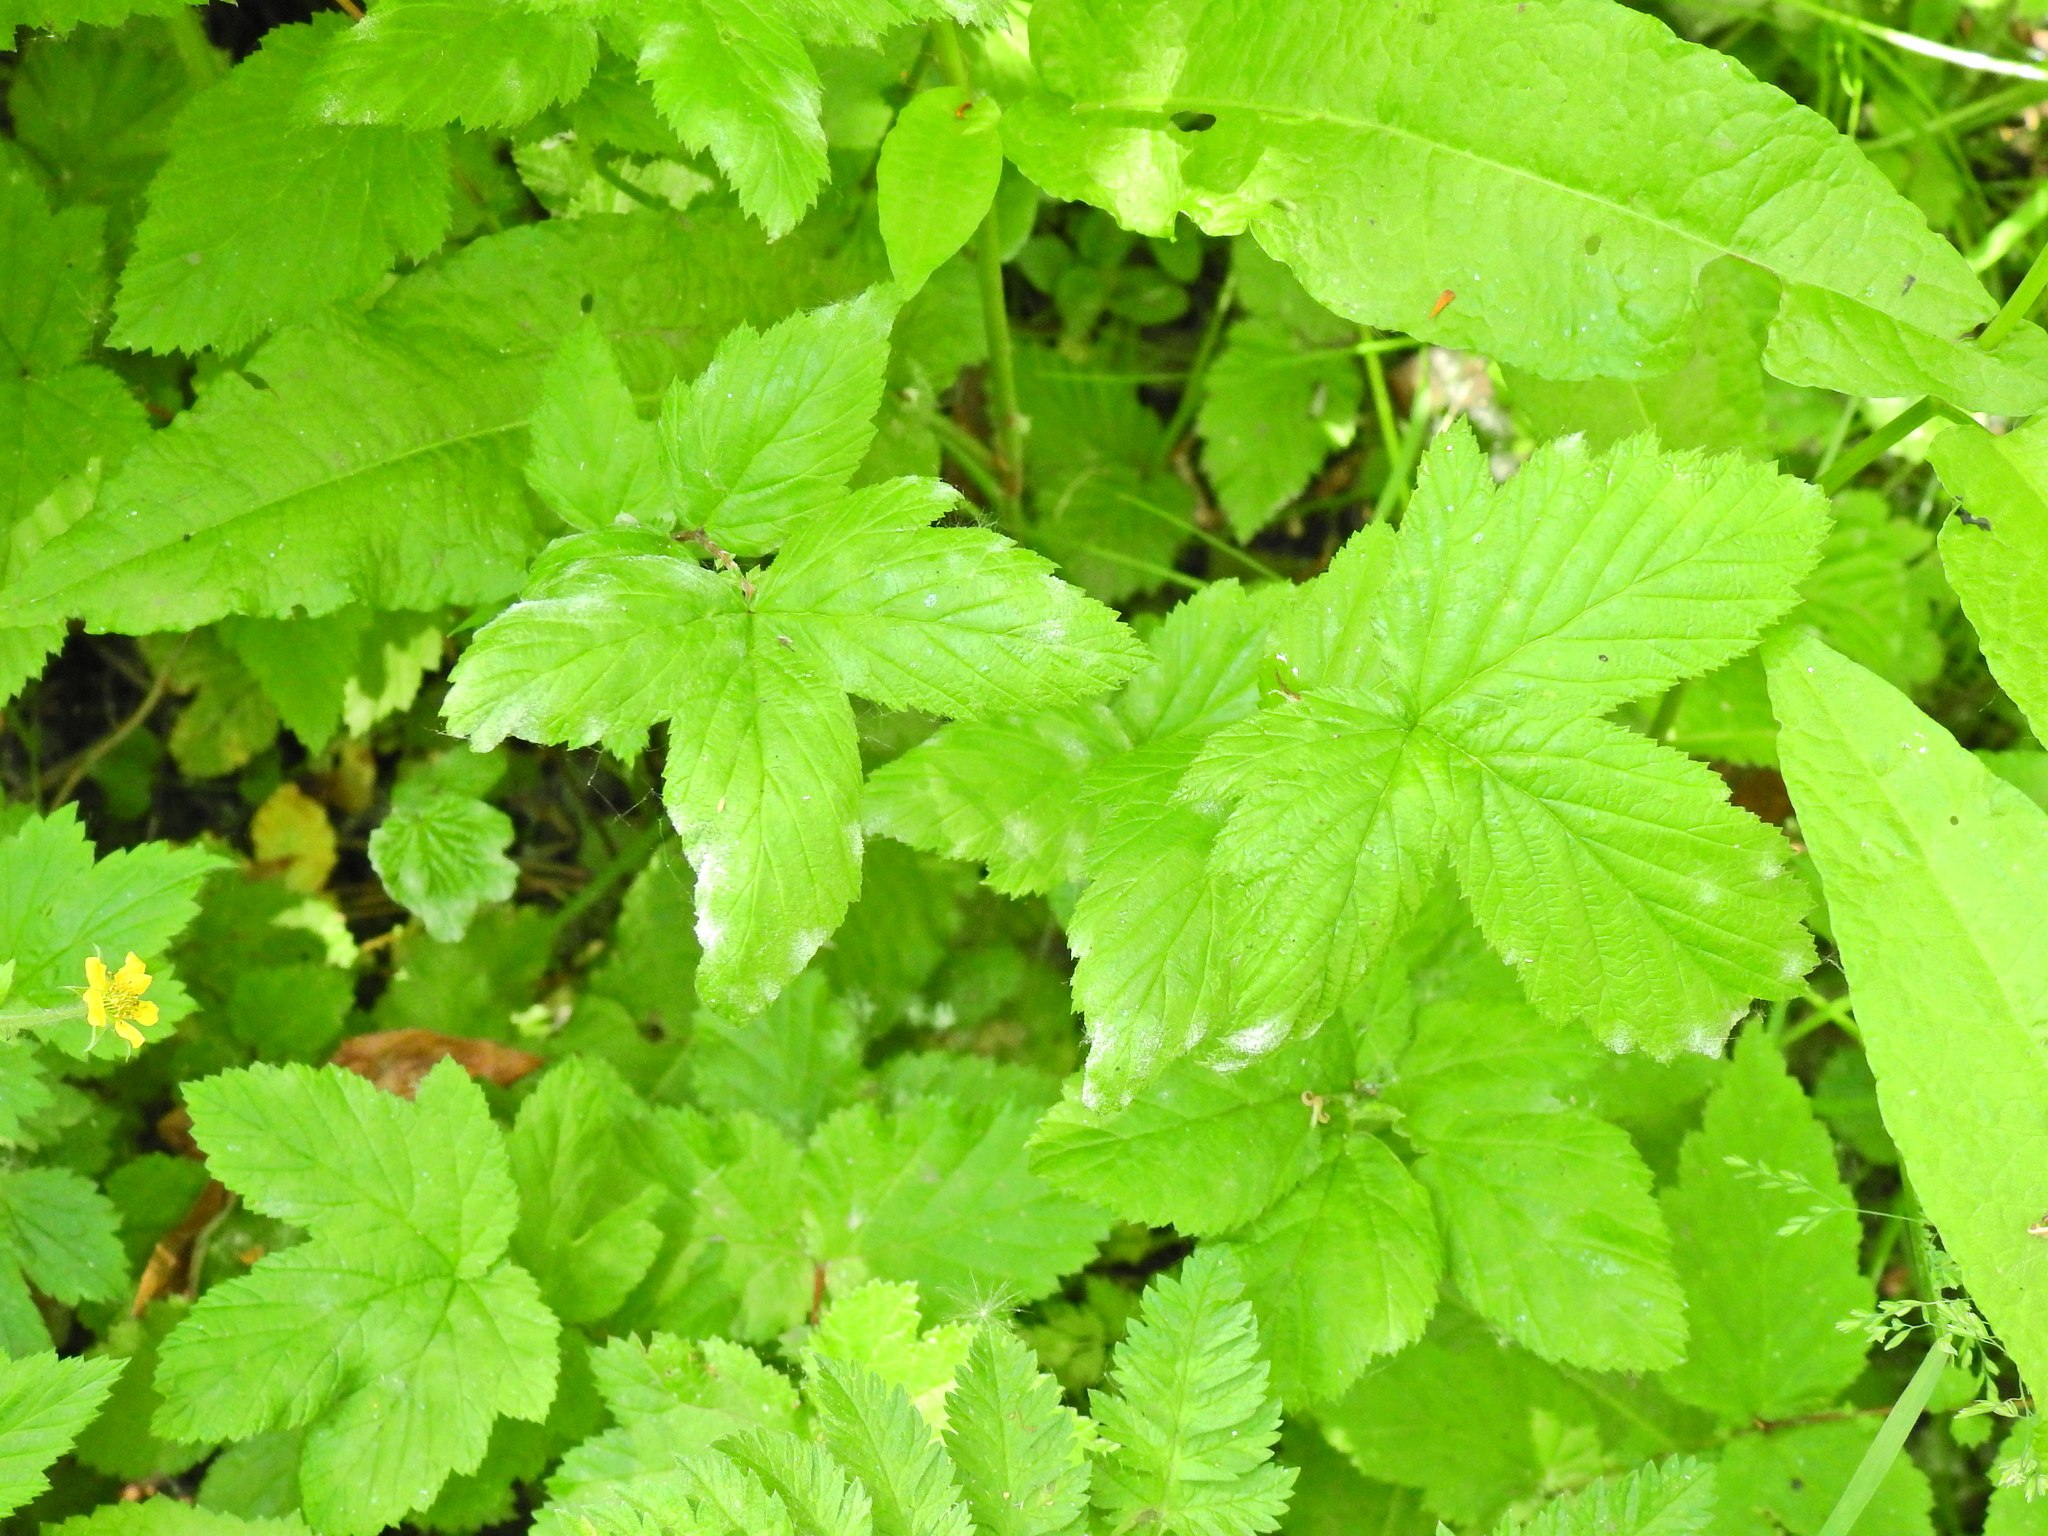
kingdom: Plantae
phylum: Tracheophyta
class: Magnoliopsida
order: Rosales
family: Rosaceae
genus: Filipendula
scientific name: Filipendula ulmaria
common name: Meadowsweet
